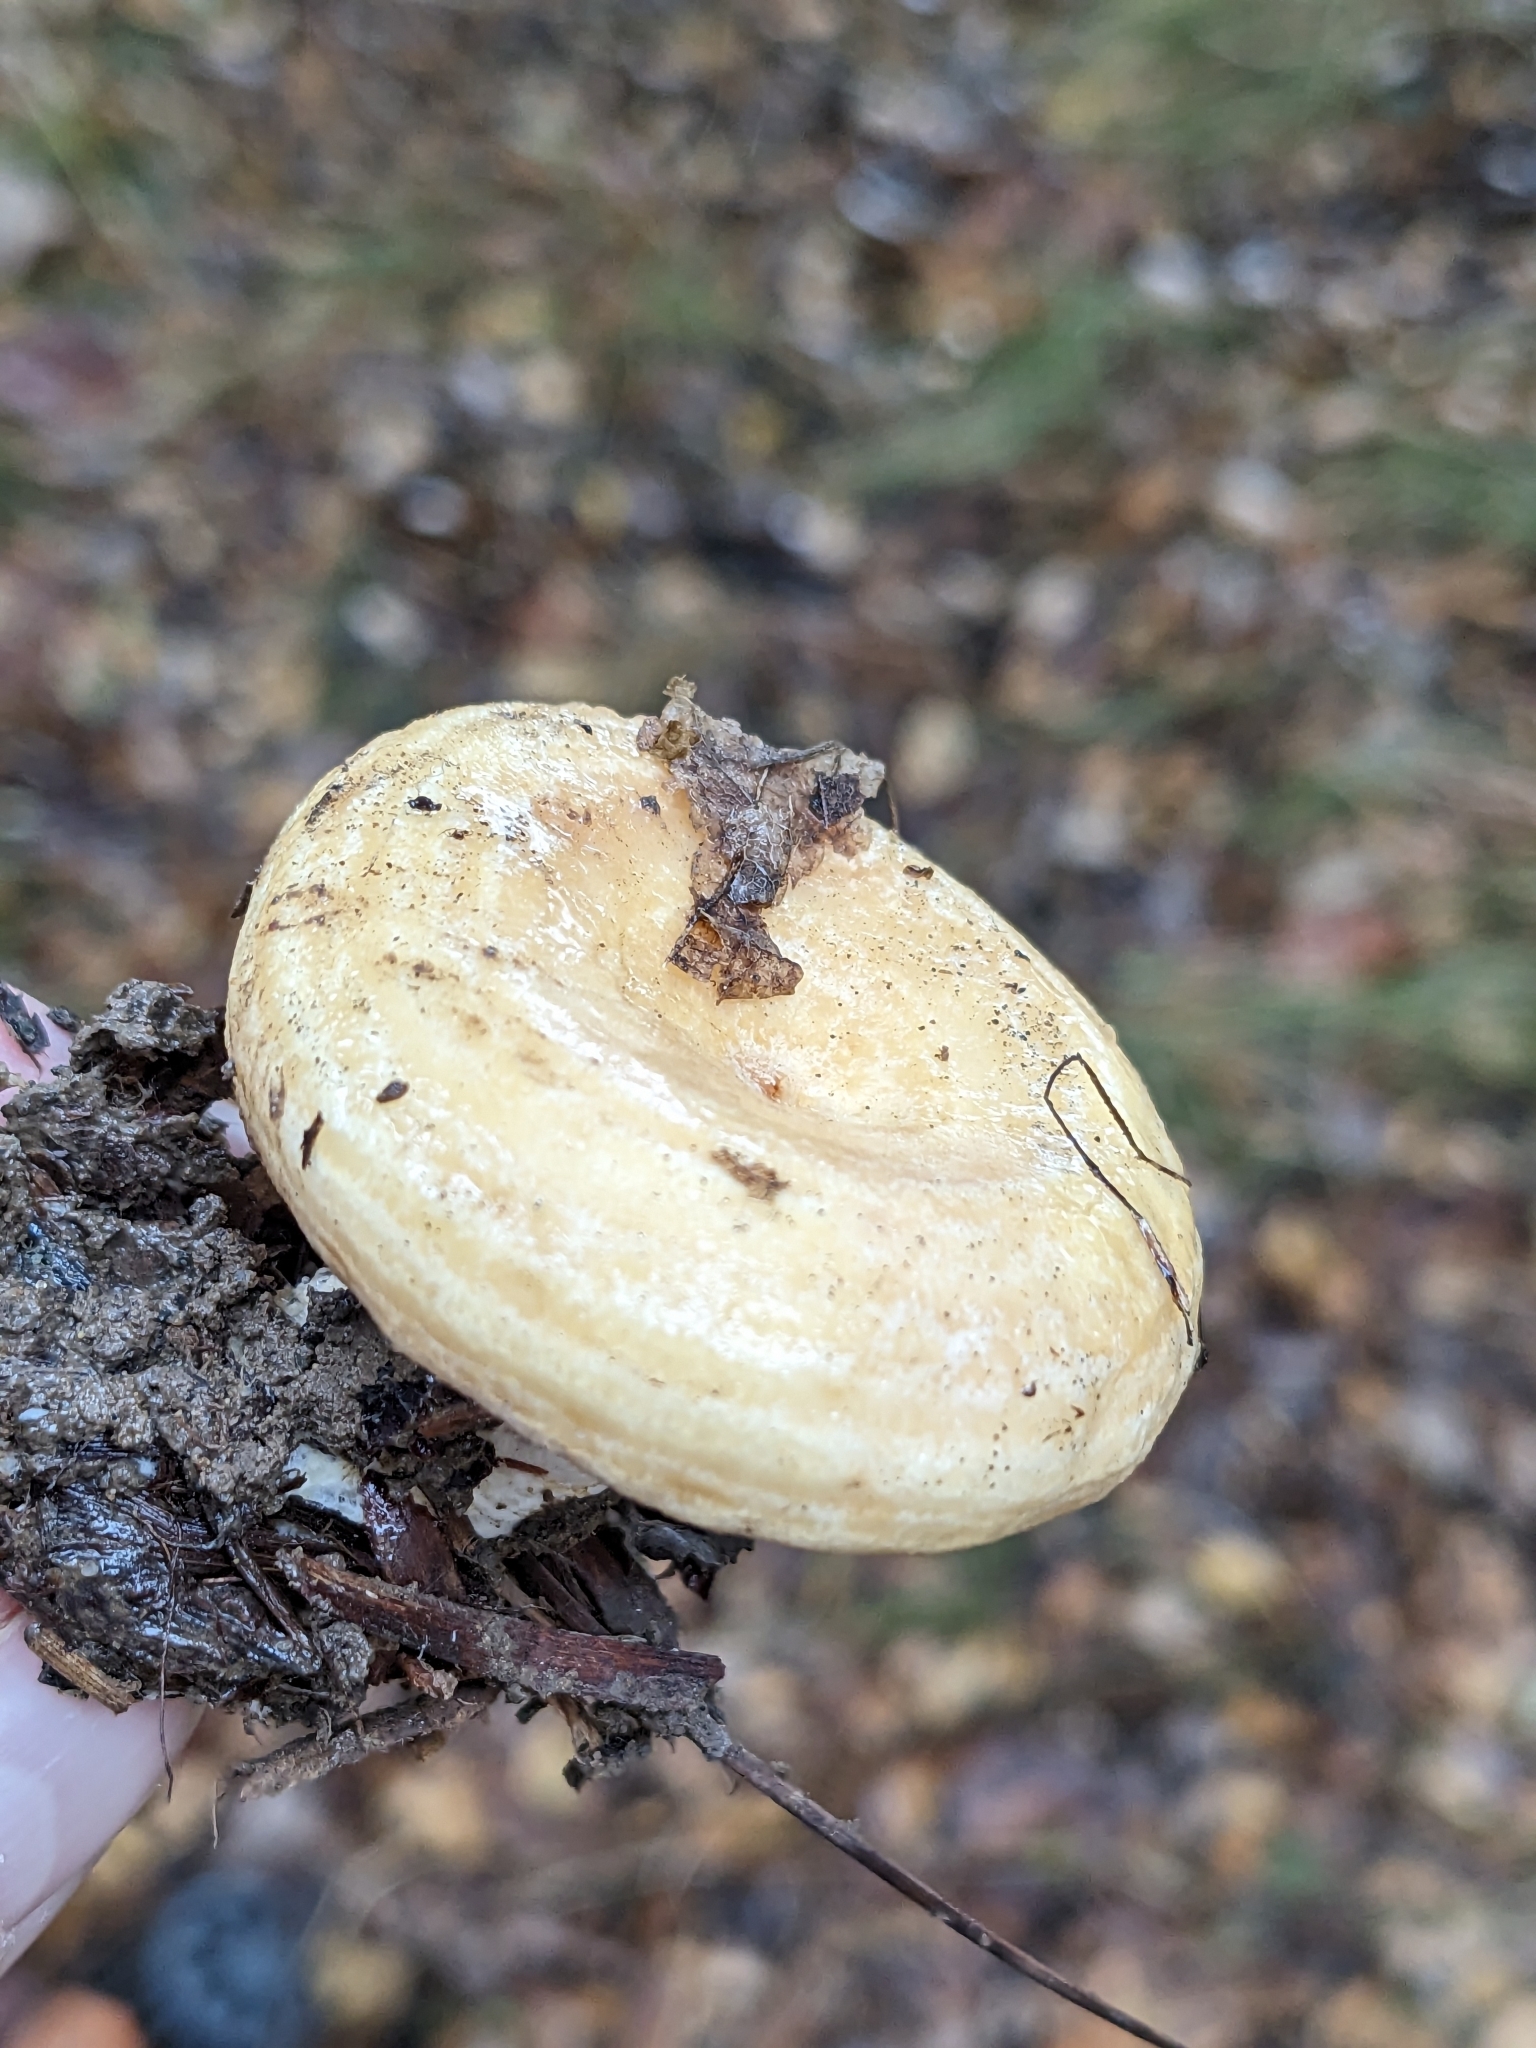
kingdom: Fungi
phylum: Basidiomycota
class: Agaricomycetes
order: Russulales
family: Russulaceae
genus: Lactarius
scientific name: Lactarius alnicola
